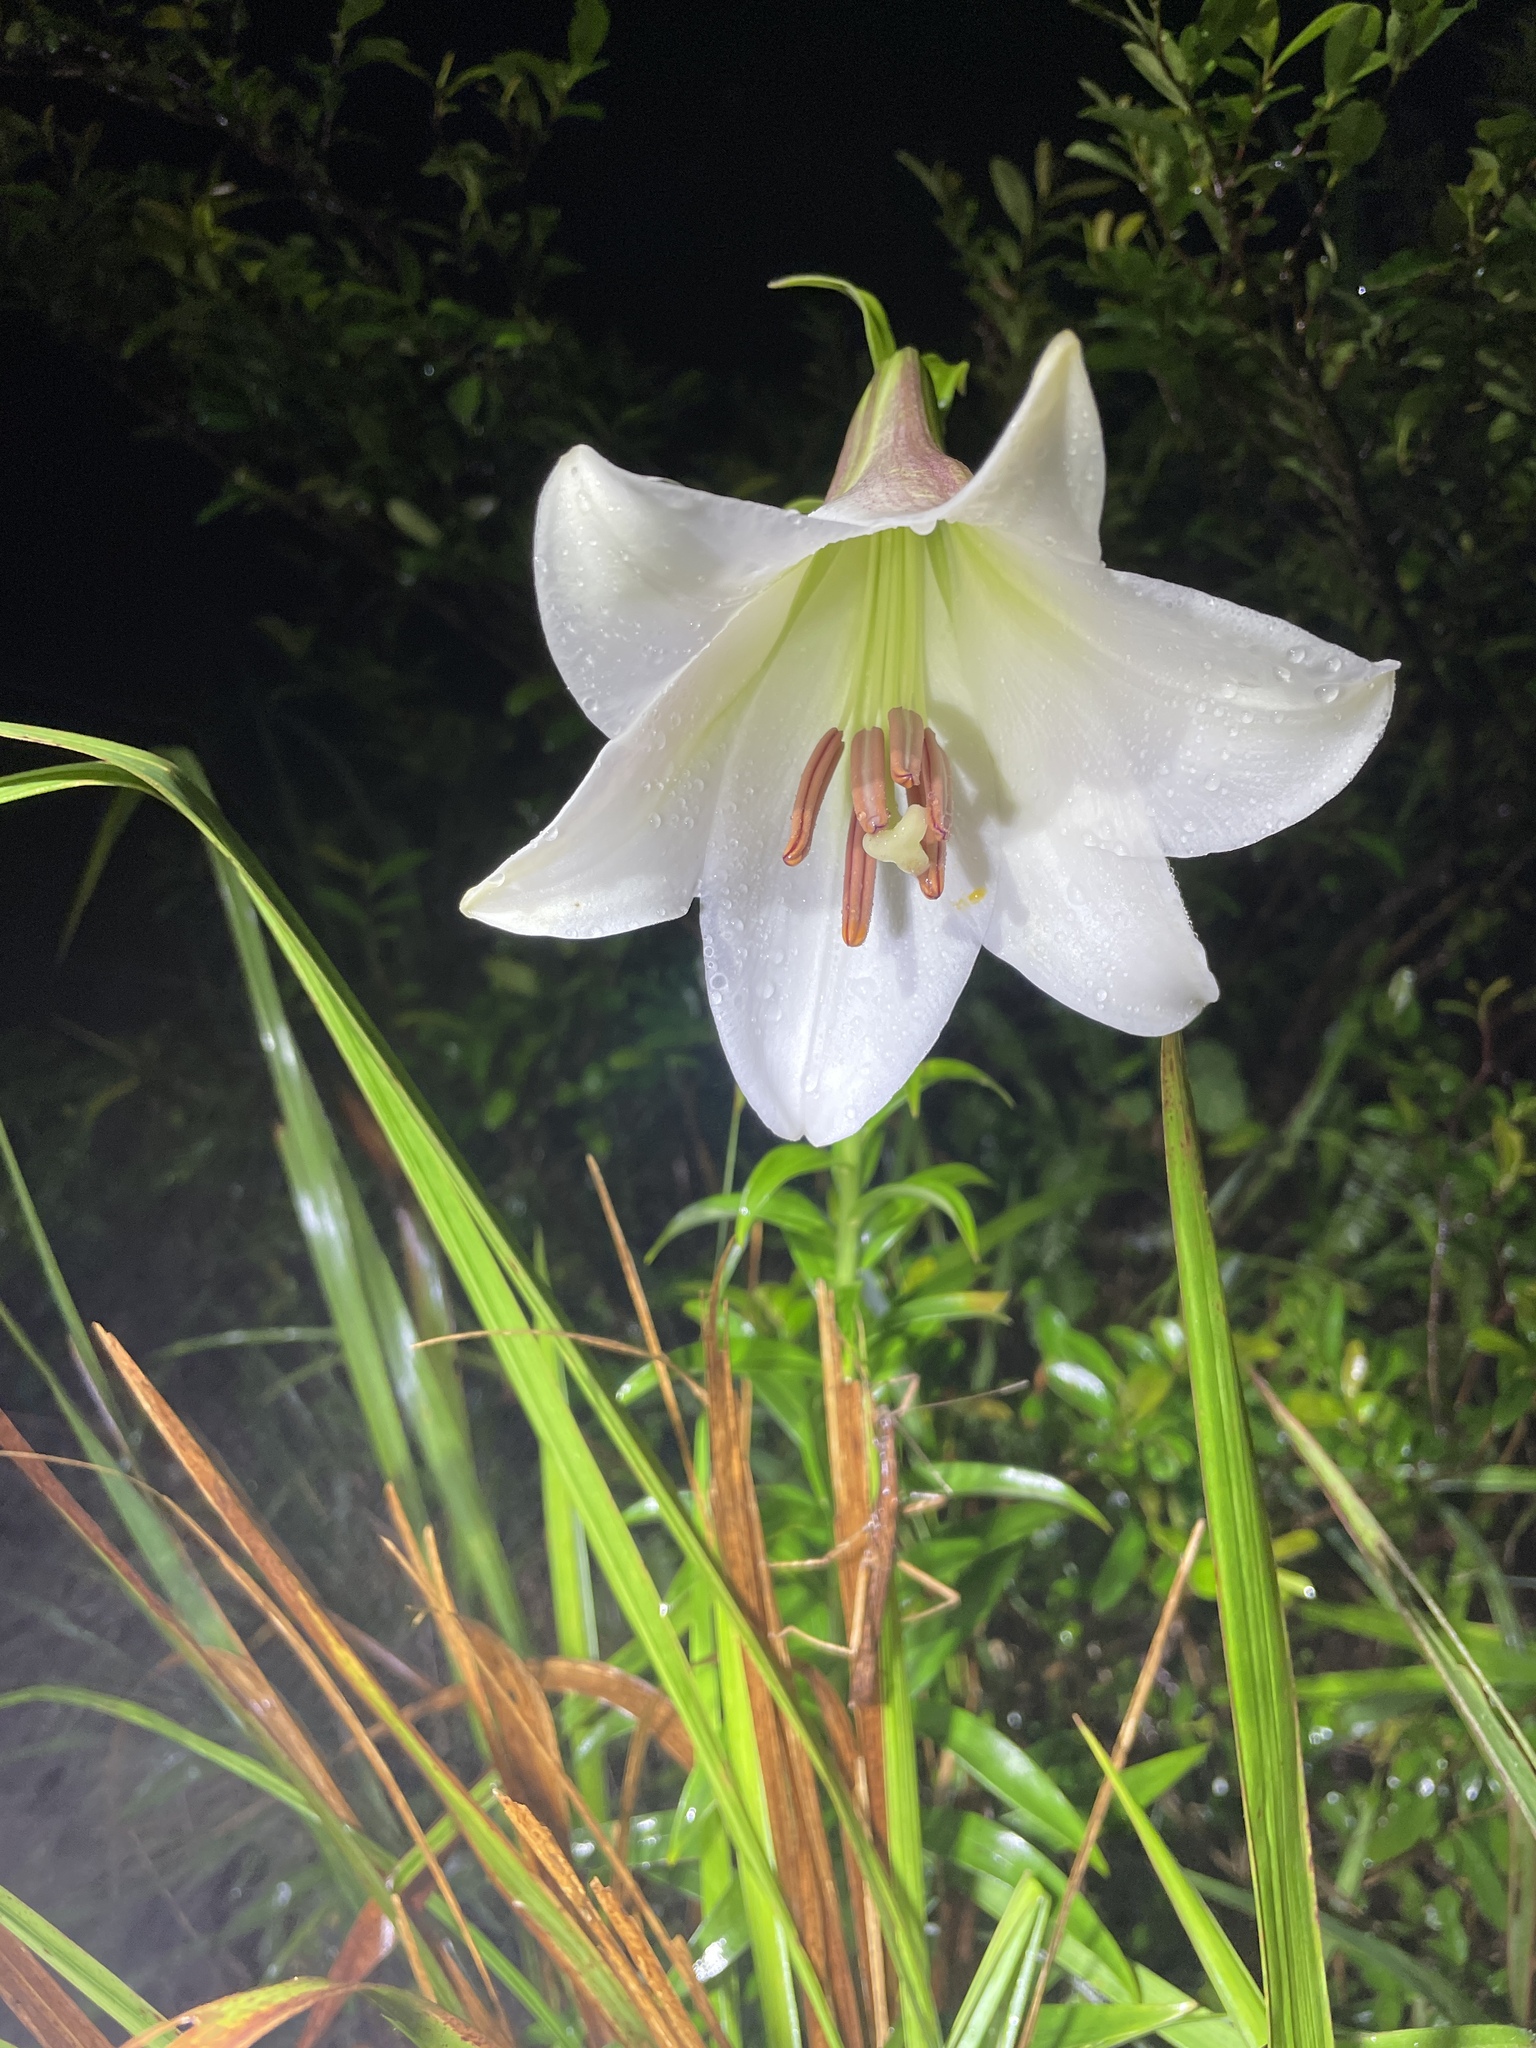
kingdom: Plantae
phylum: Tracheophyta
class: Liliopsida
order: Liliales
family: Liliaceae
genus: Lilium
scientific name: Lilium brownii
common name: Brown's lily
